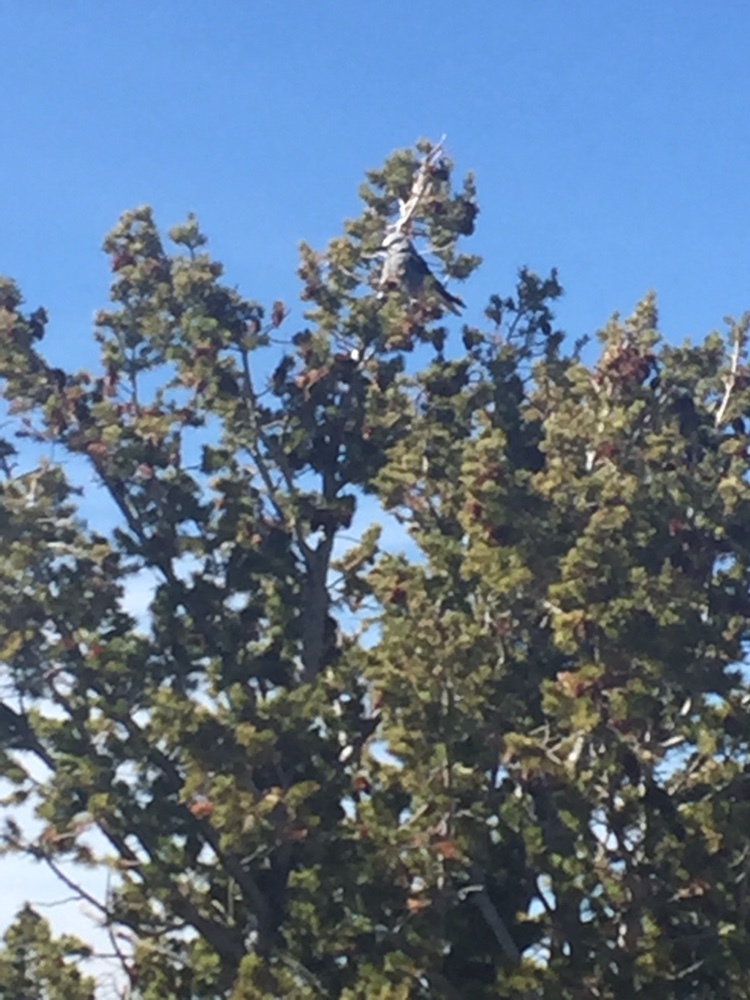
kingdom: Animalia
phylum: Chordata
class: Aves
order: Passeriformes
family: Corvidae
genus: Nucifraga
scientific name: Nucifraga columbiana
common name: Clark's nutcracker
